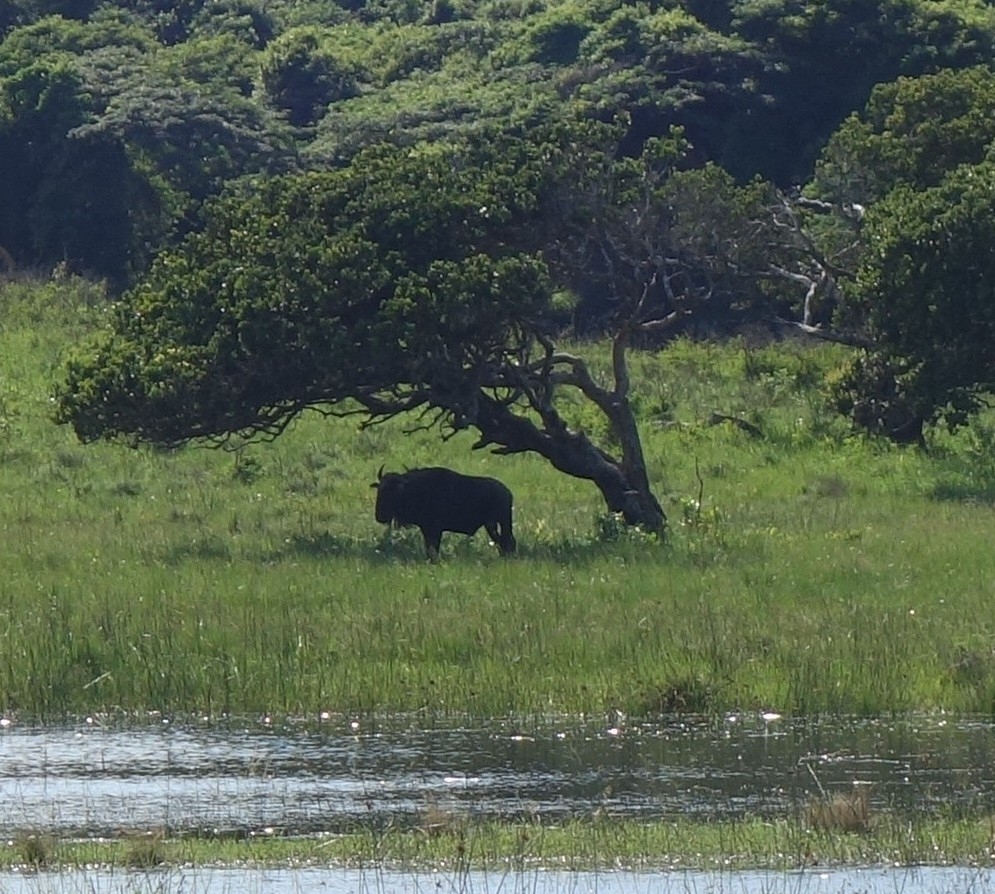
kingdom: Animalia
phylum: Chordata
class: Mammalia
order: Artiodactyla
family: Bovidae
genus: Connochaetes
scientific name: Connochaetes taurinus
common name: Blue wildebeest
